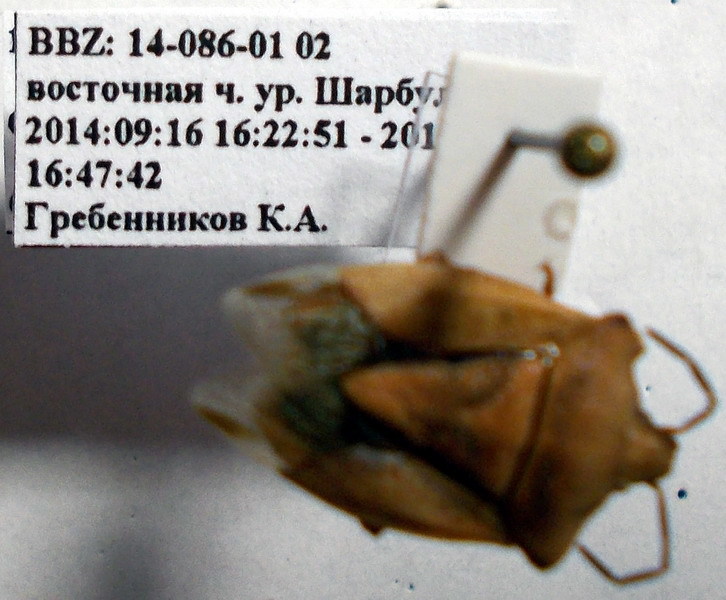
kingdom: Animalia
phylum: Arthropoda
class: Insecta
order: Hemiptera
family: Pentatomidae
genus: Carpocoris
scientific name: Carpocoris coreanus
